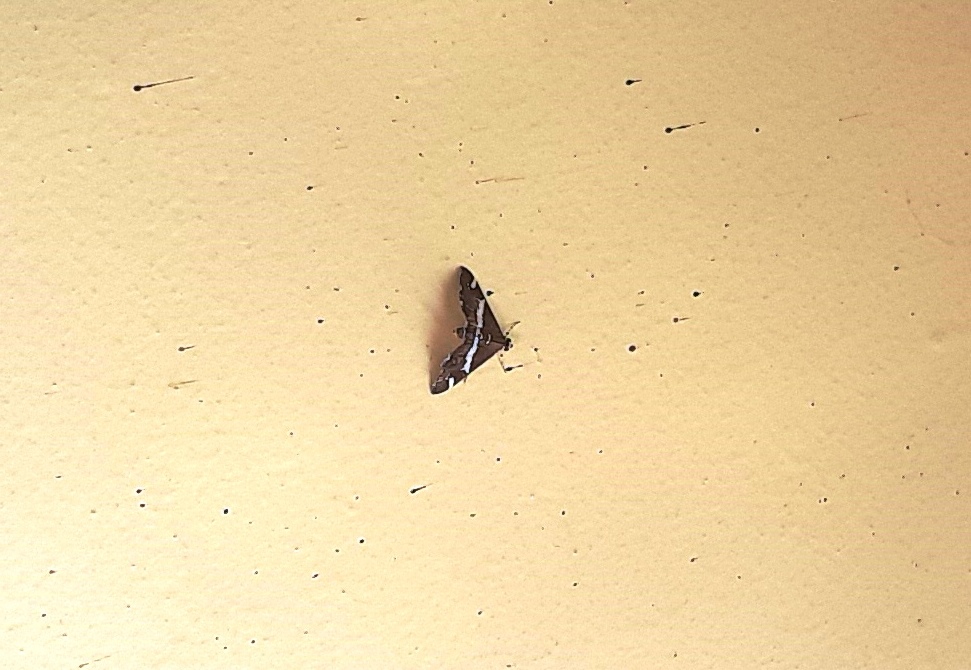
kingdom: Animalia
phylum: Arthropoda
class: Insecta
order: Lepidoptera
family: Crambidae
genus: Spoladea
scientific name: Spoladea recurvalis
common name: Beet webworm moth
